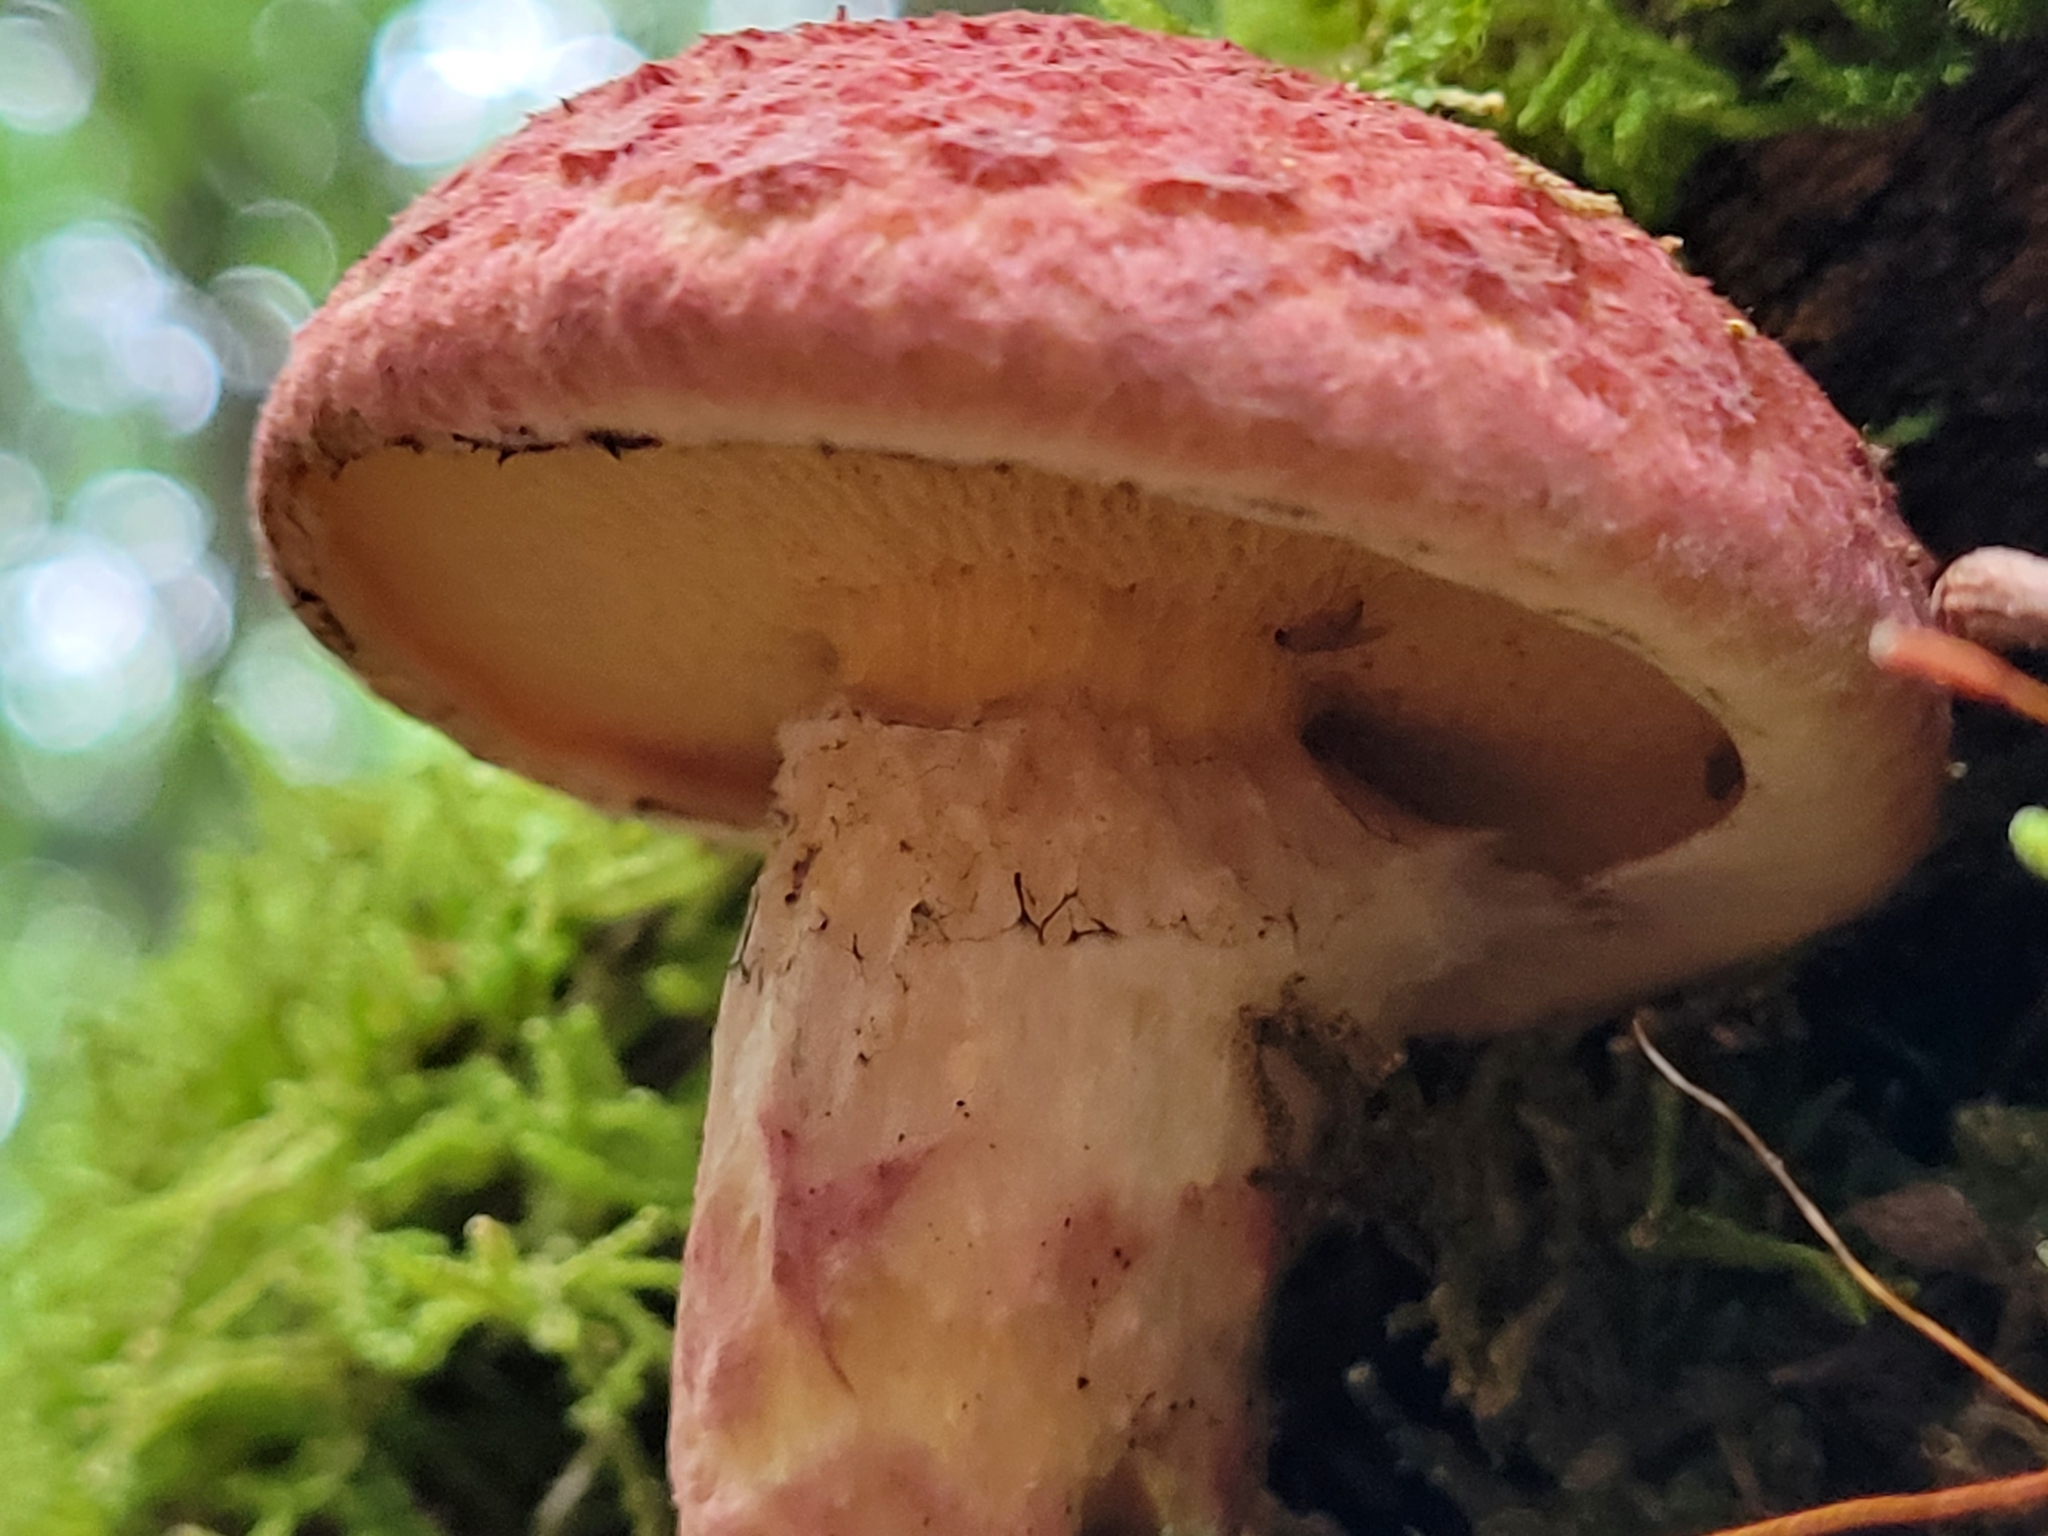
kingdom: Fungi
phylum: Basidiomycota
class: Agaricomycetes
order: Boletales
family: Suillaceae
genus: Suillus
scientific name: Suillus spraguei
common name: Painted suillus
